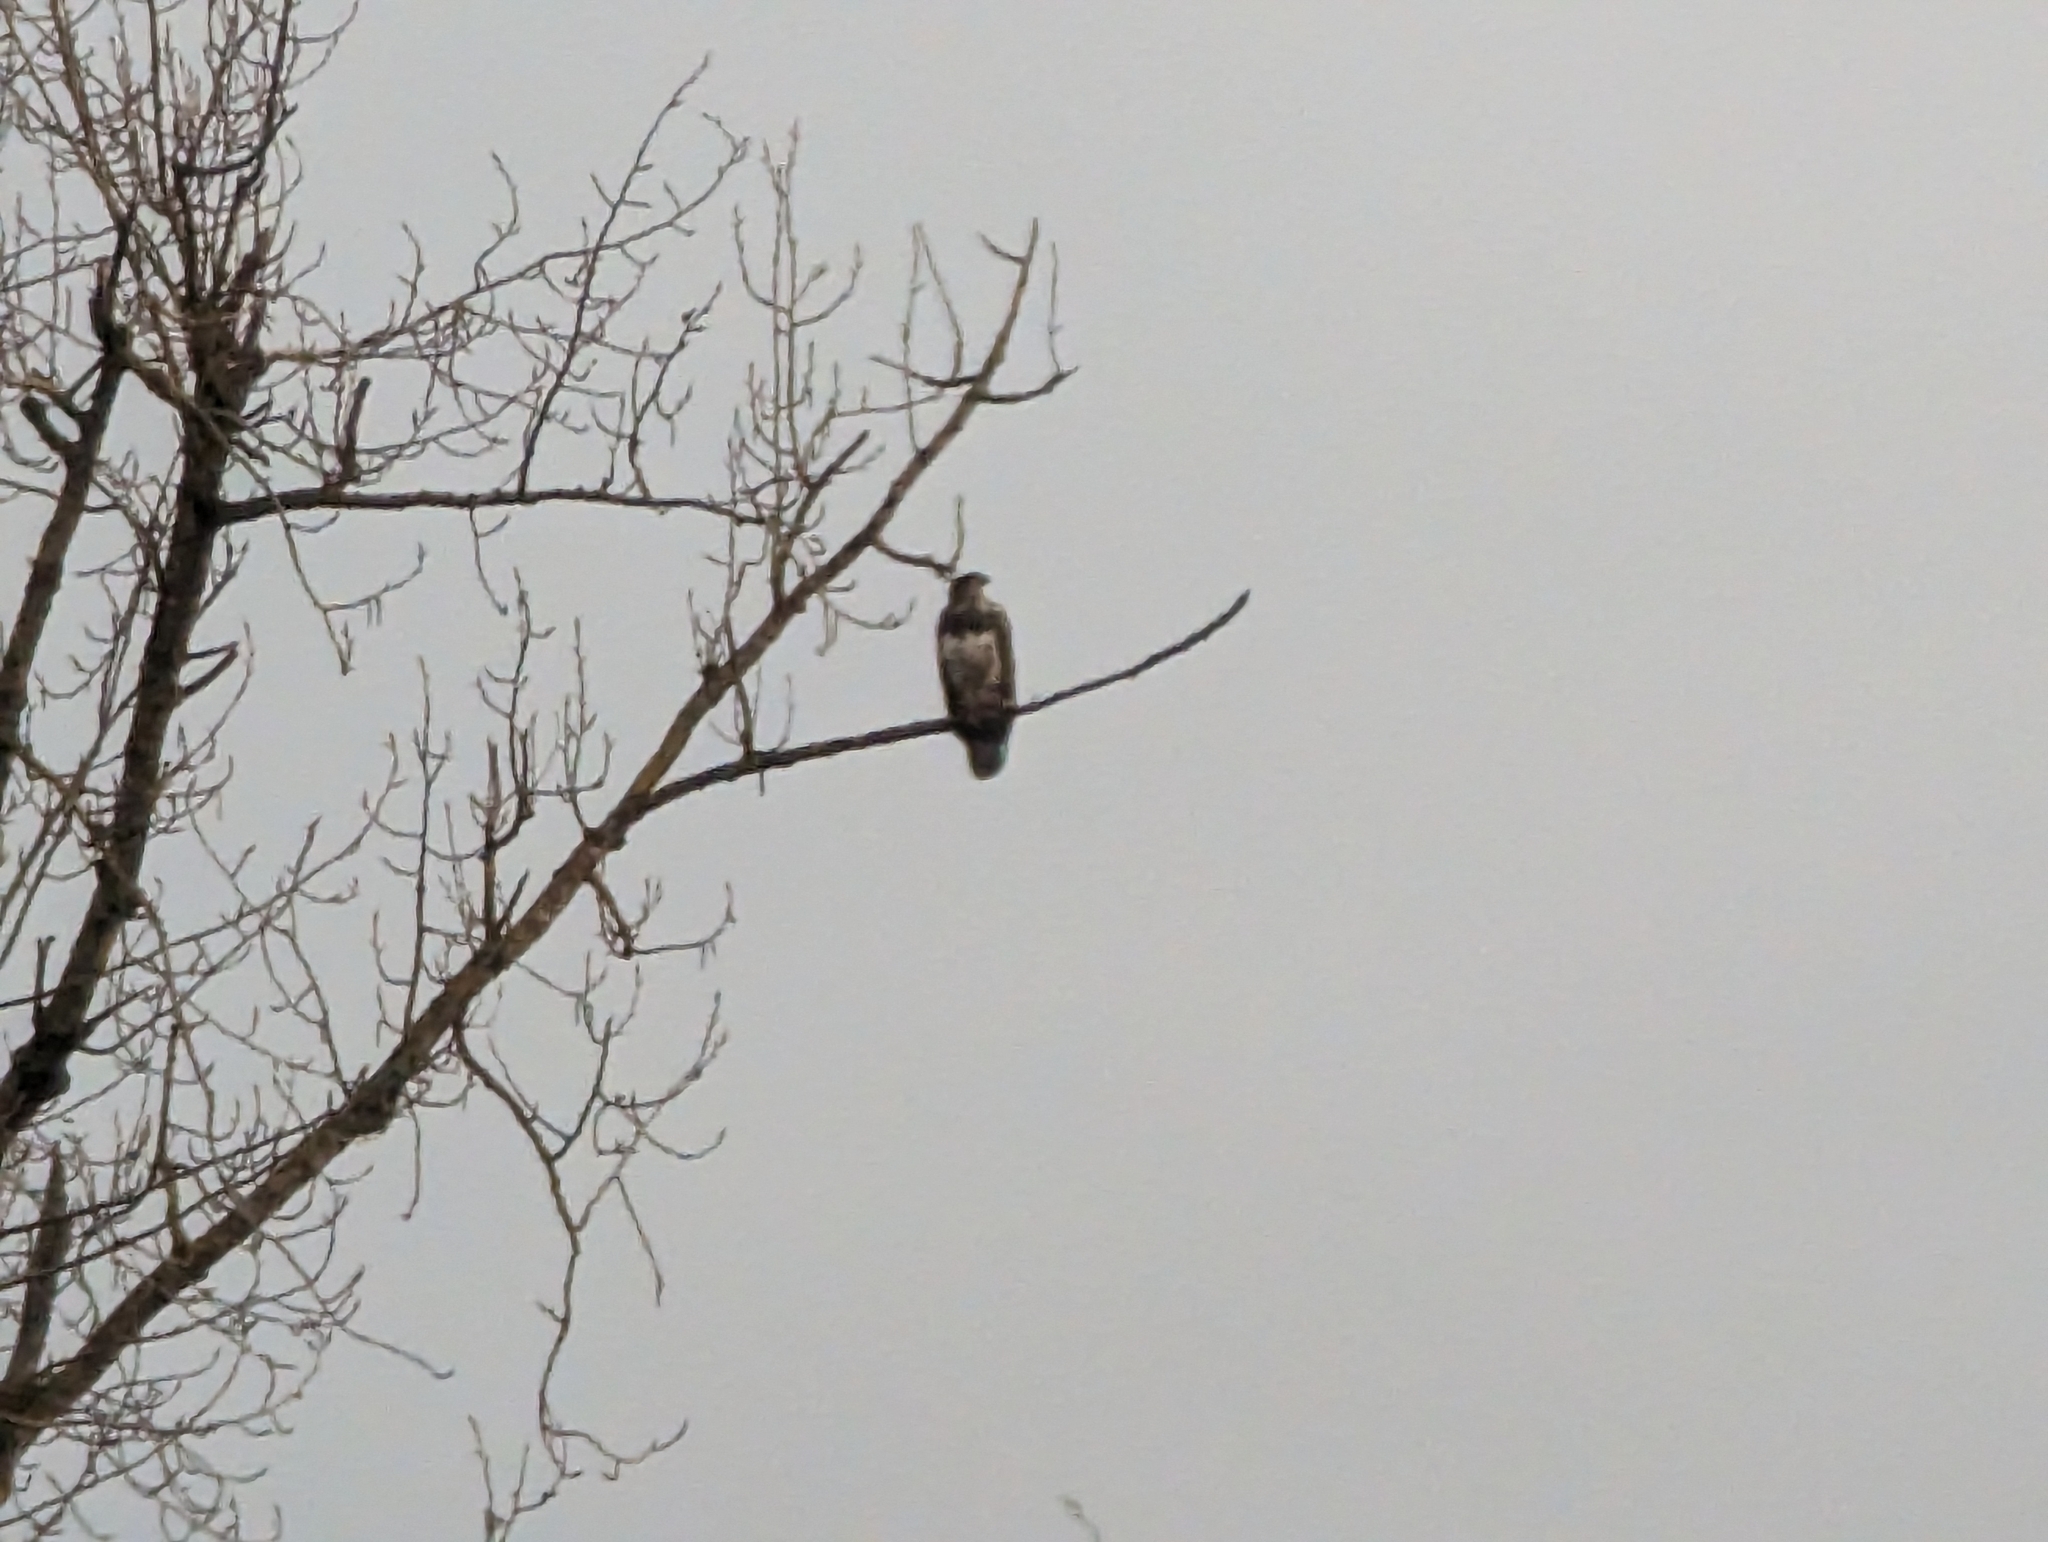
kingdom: Animalia
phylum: Chordata
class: Aves
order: Accipitriformes
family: Accipitridae
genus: Haliaeetus
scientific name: Haliaeetus leucocephalus
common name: Bald eagle
